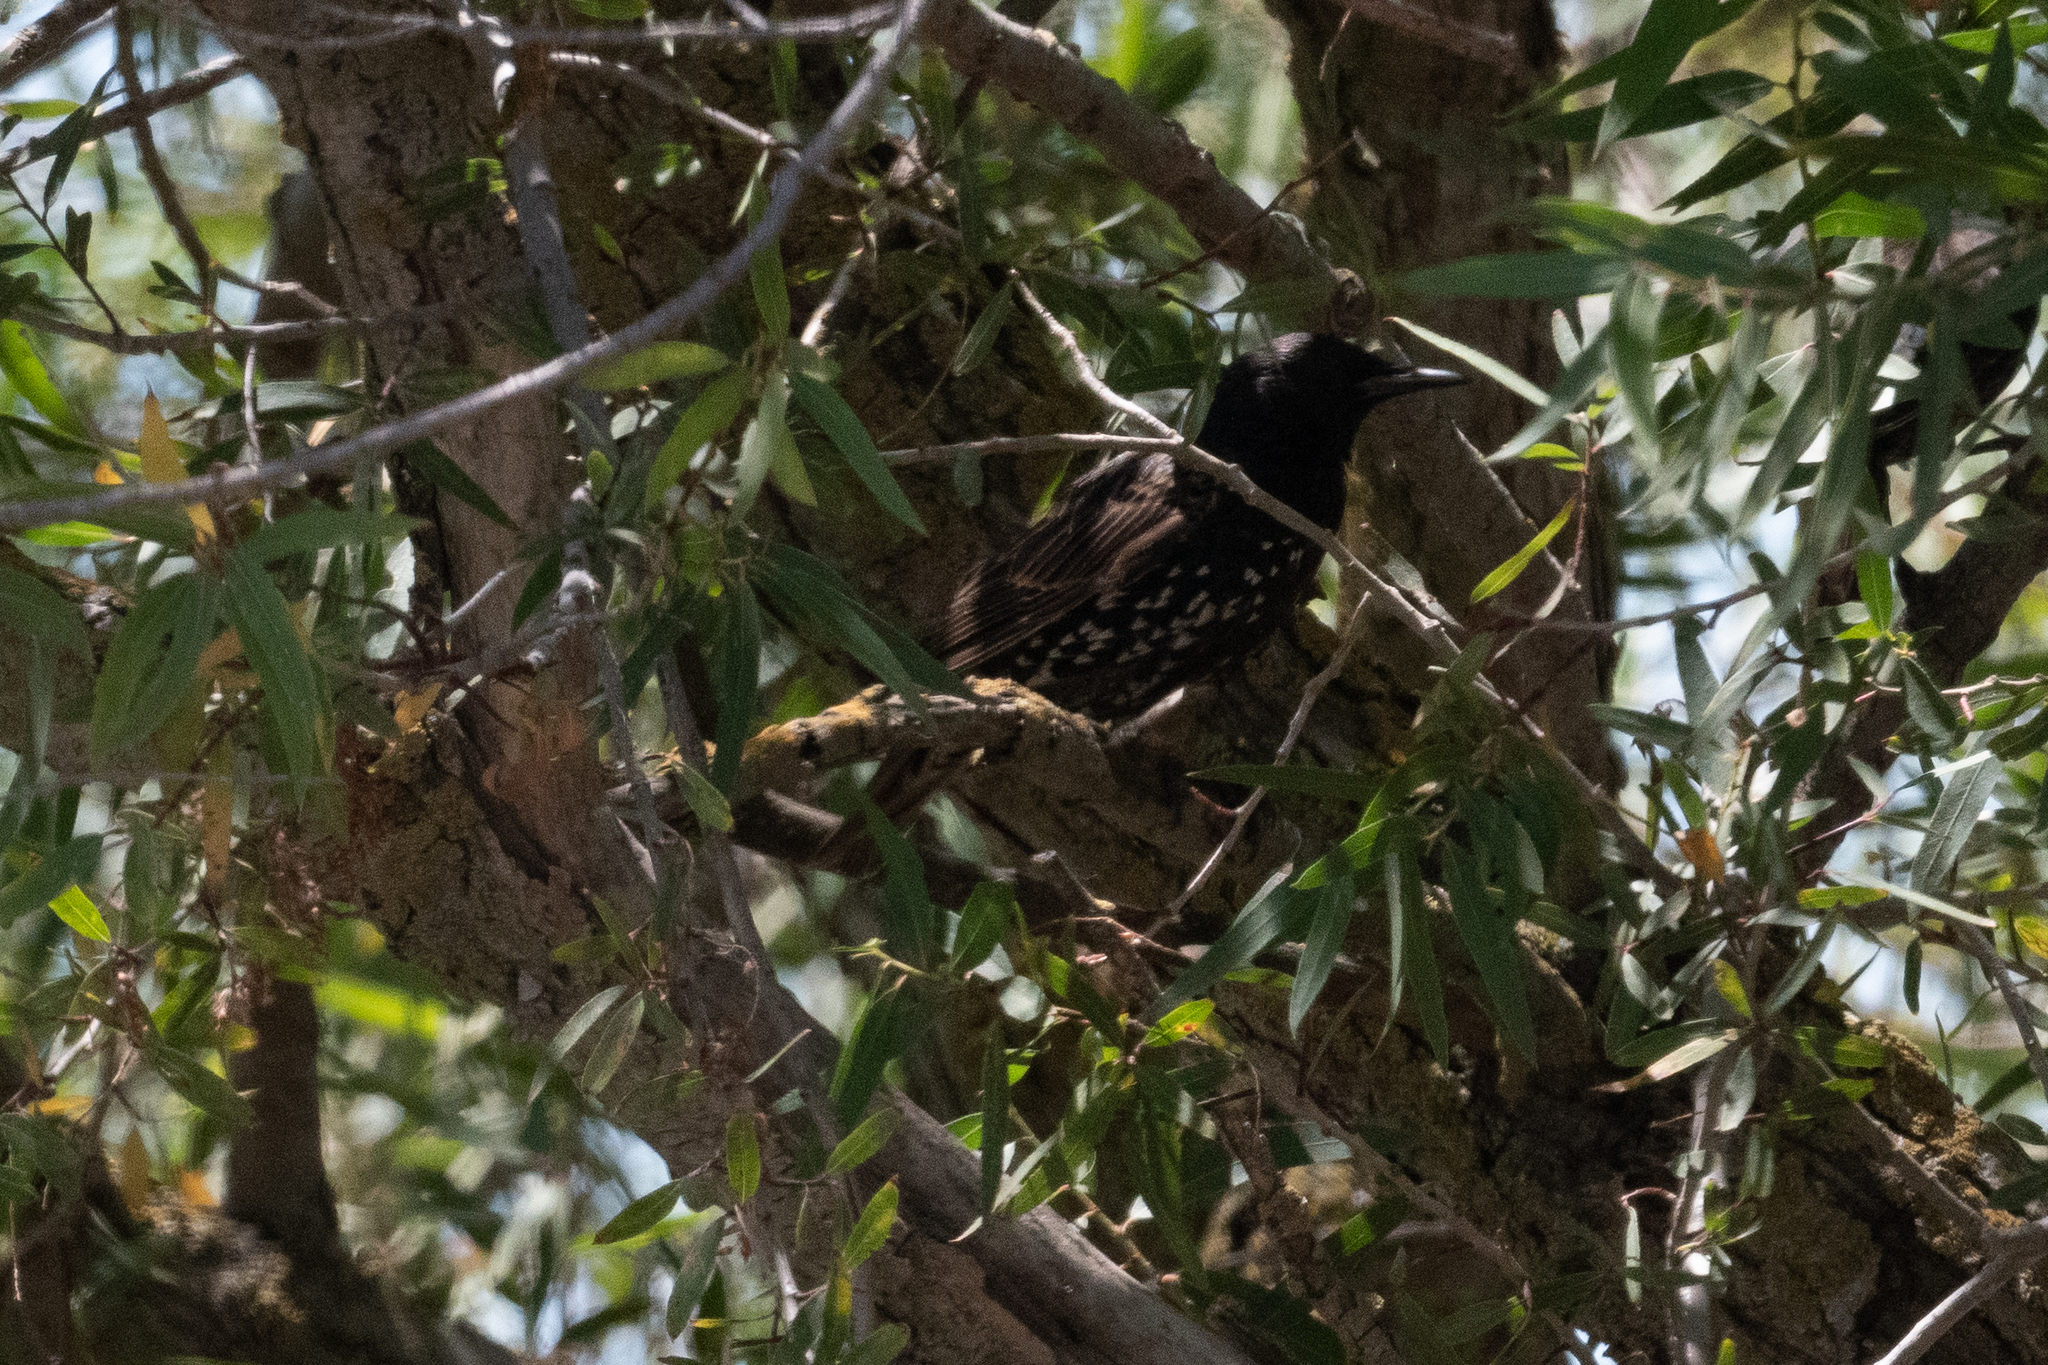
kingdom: Animalia
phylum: Chordata
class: Aves
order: Passeriformes
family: Sturnidae
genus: Sturnus
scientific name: Sturnus vulgaris
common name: Common starling
